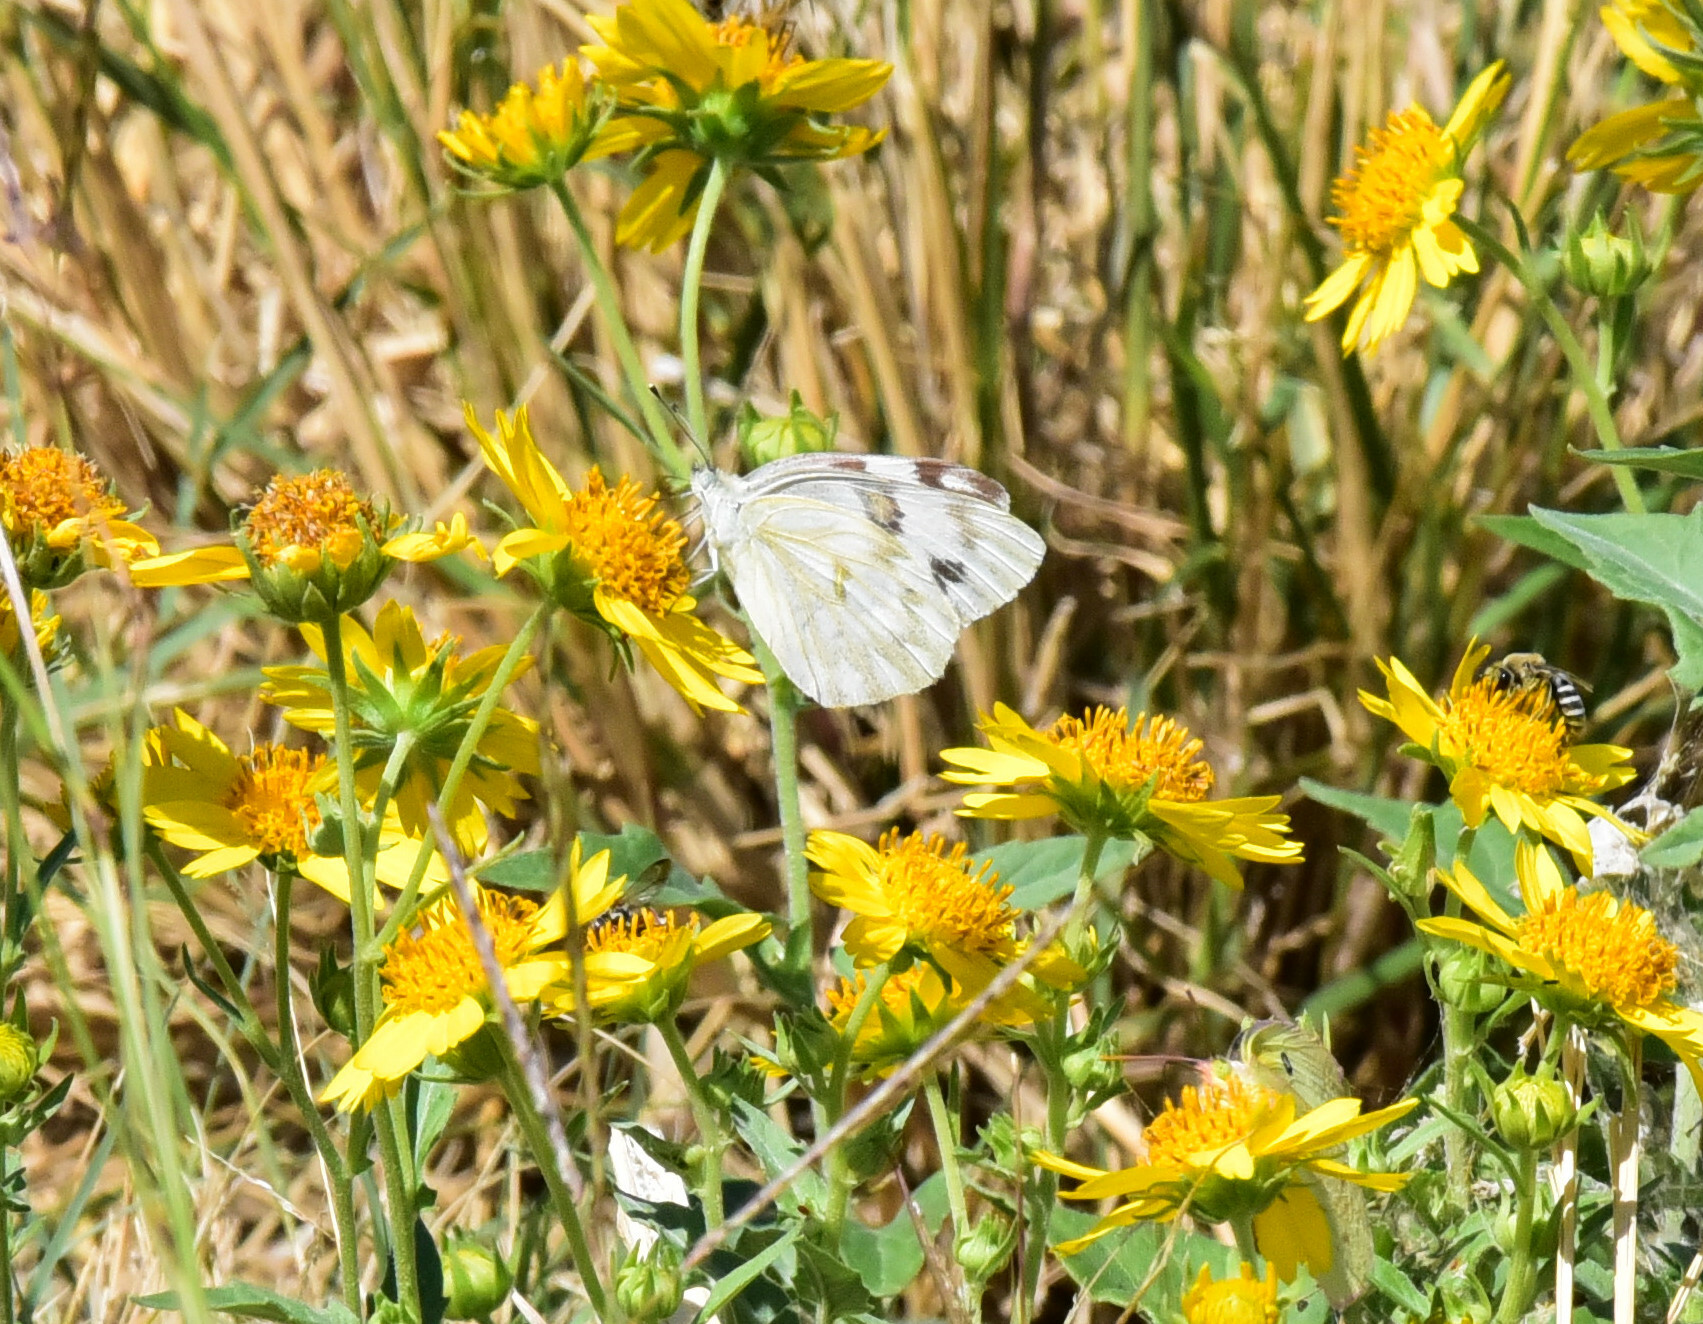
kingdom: Animalia
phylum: Arthropoda
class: Insecta
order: Lepidoptera
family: Pieridae
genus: Pontia
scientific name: Pontia protodice
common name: Checkered white
